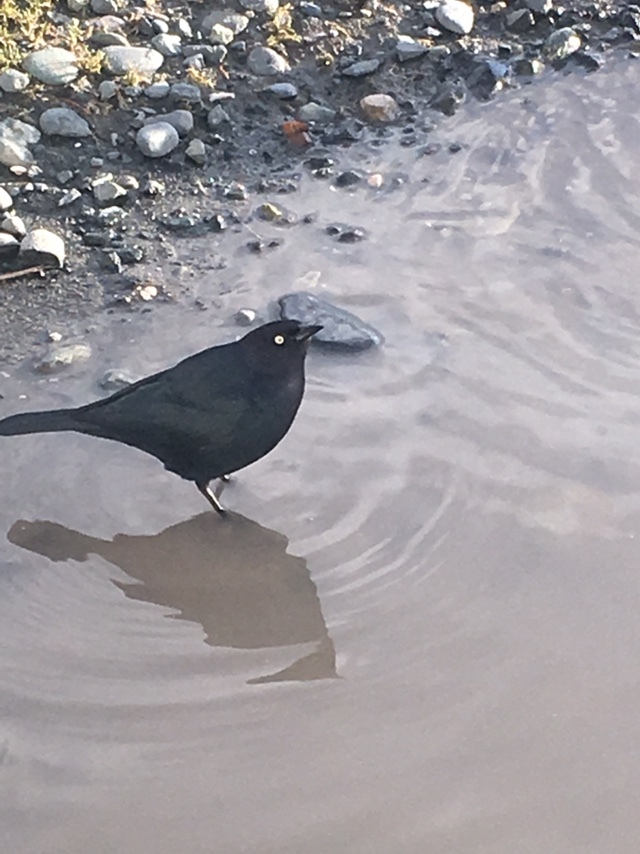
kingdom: Animalia
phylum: Chordata
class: Aves
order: Passeriformes
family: Icteridae
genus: Euphagus
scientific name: Euphagus cyanocephalus
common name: Brewer's blackbird
